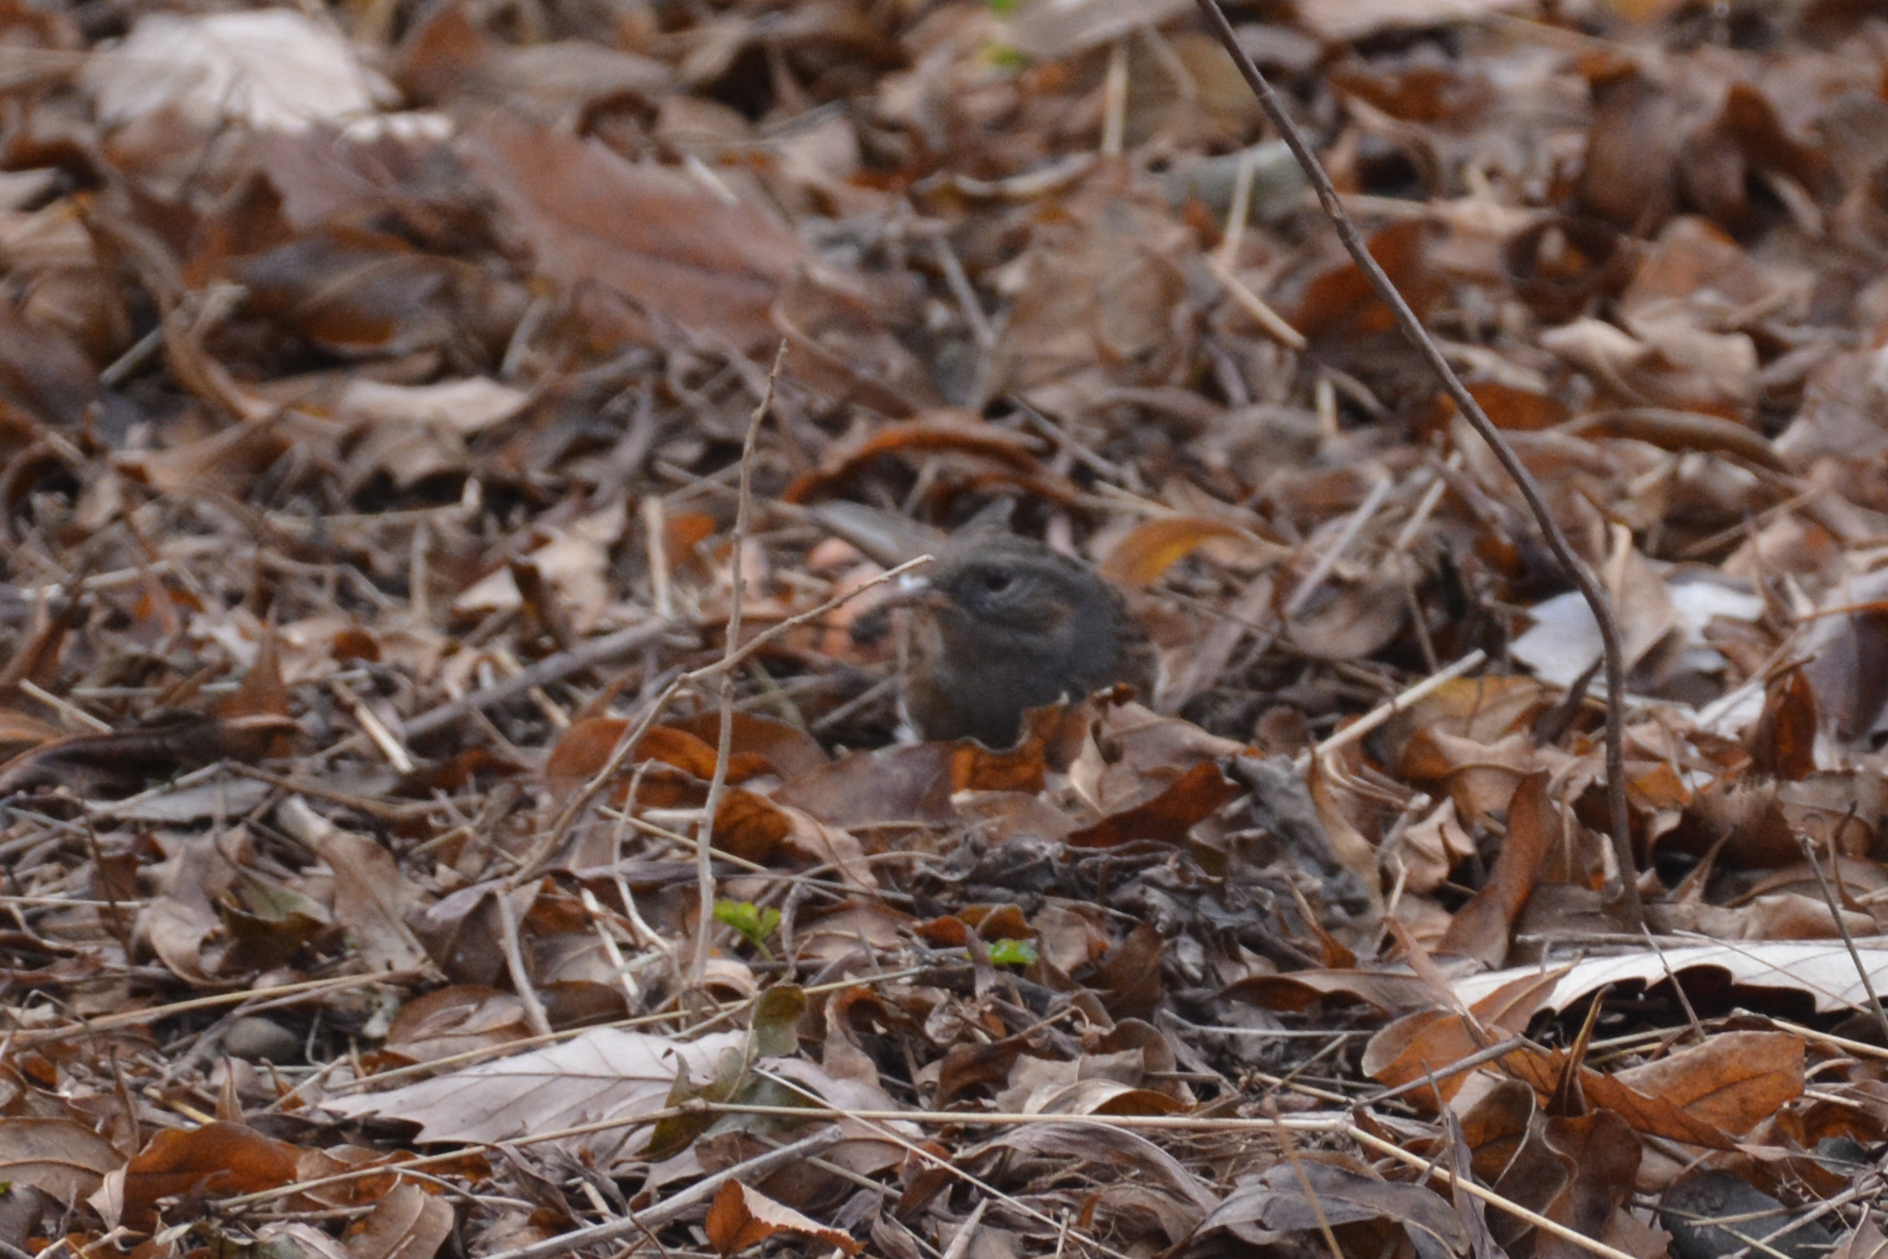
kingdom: Animalia
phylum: Chordata
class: Aves
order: Passeriformes
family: Prunellidae
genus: Prunella
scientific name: Prunella modularis
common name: Dunnock
